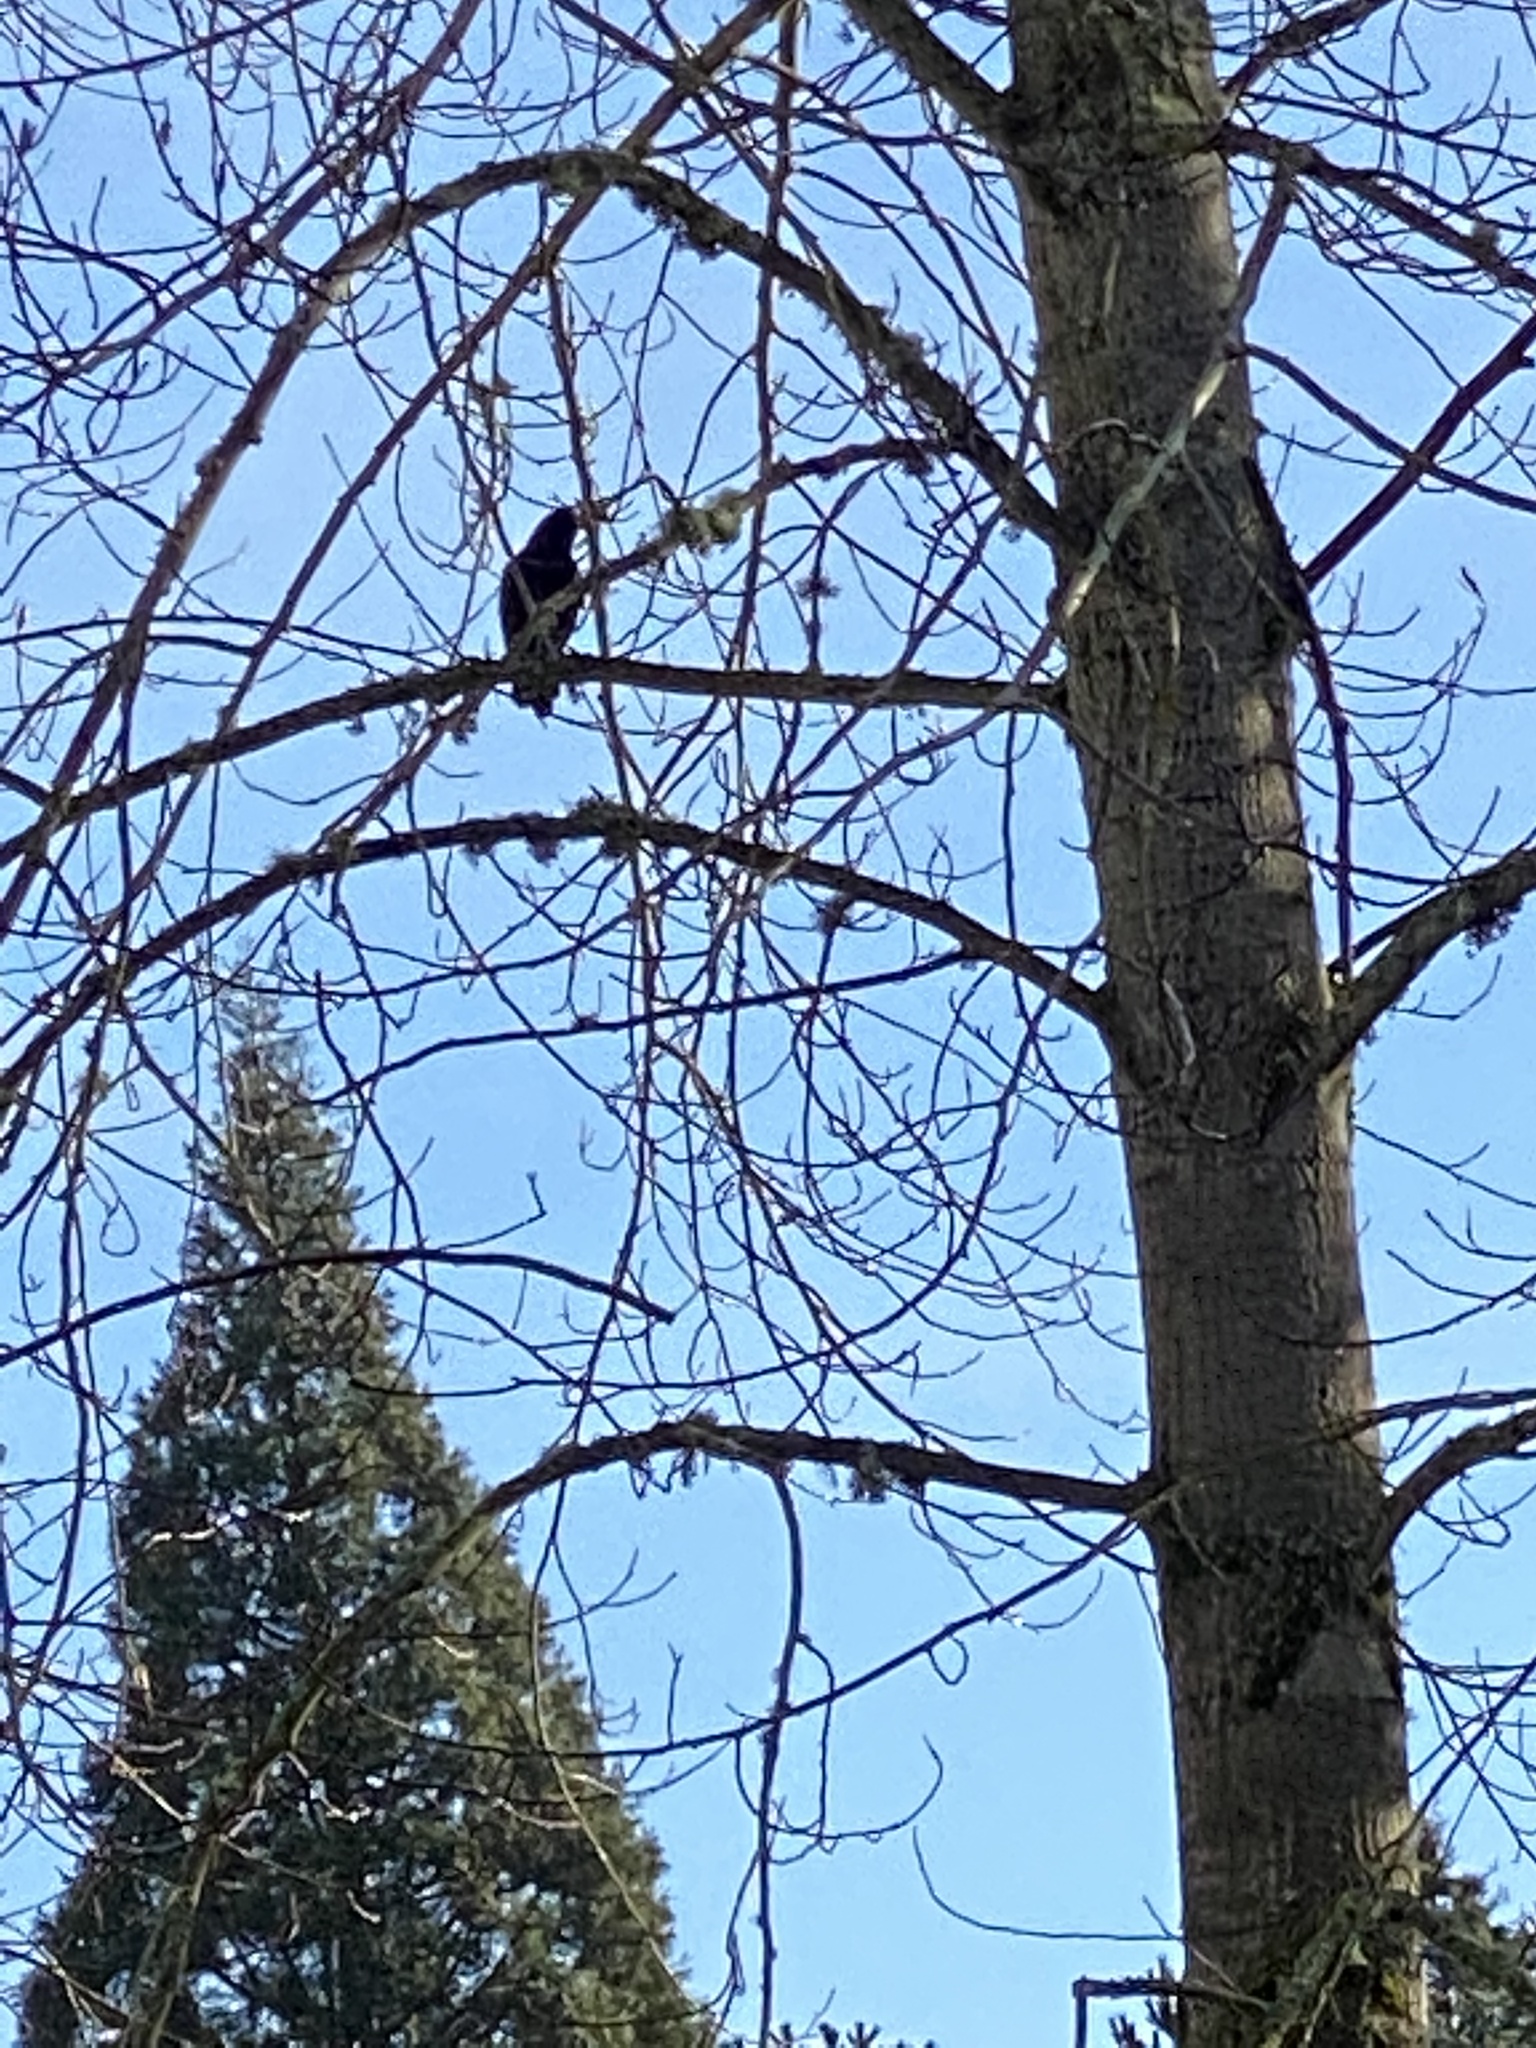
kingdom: Animalia
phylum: Chordata
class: Aves
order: Passeriformes
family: Corvidae
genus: Corvus
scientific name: Corvus brachyrhynchos
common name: American crow
